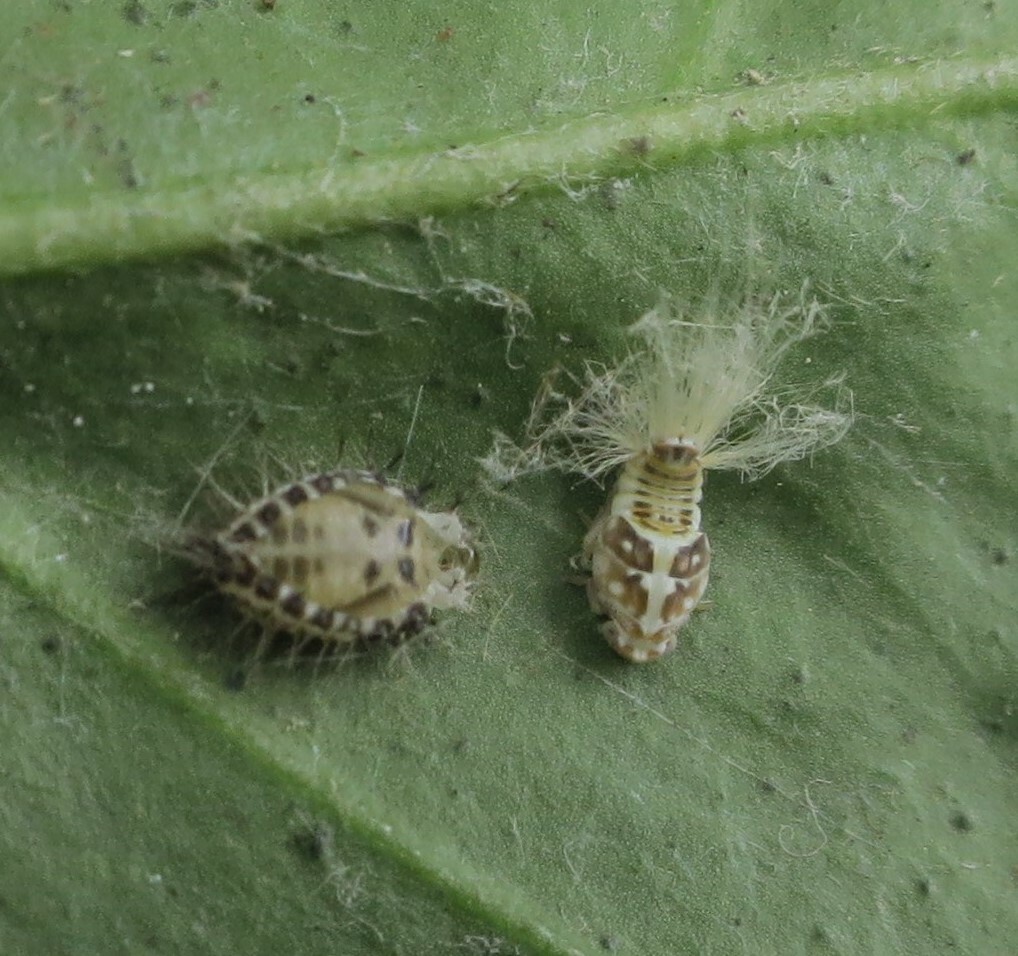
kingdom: Animalia
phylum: Arthropoda
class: Insecta
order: Hemiptera
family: Ricaniidae
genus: Scolypopa
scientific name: Scolypopa australis
